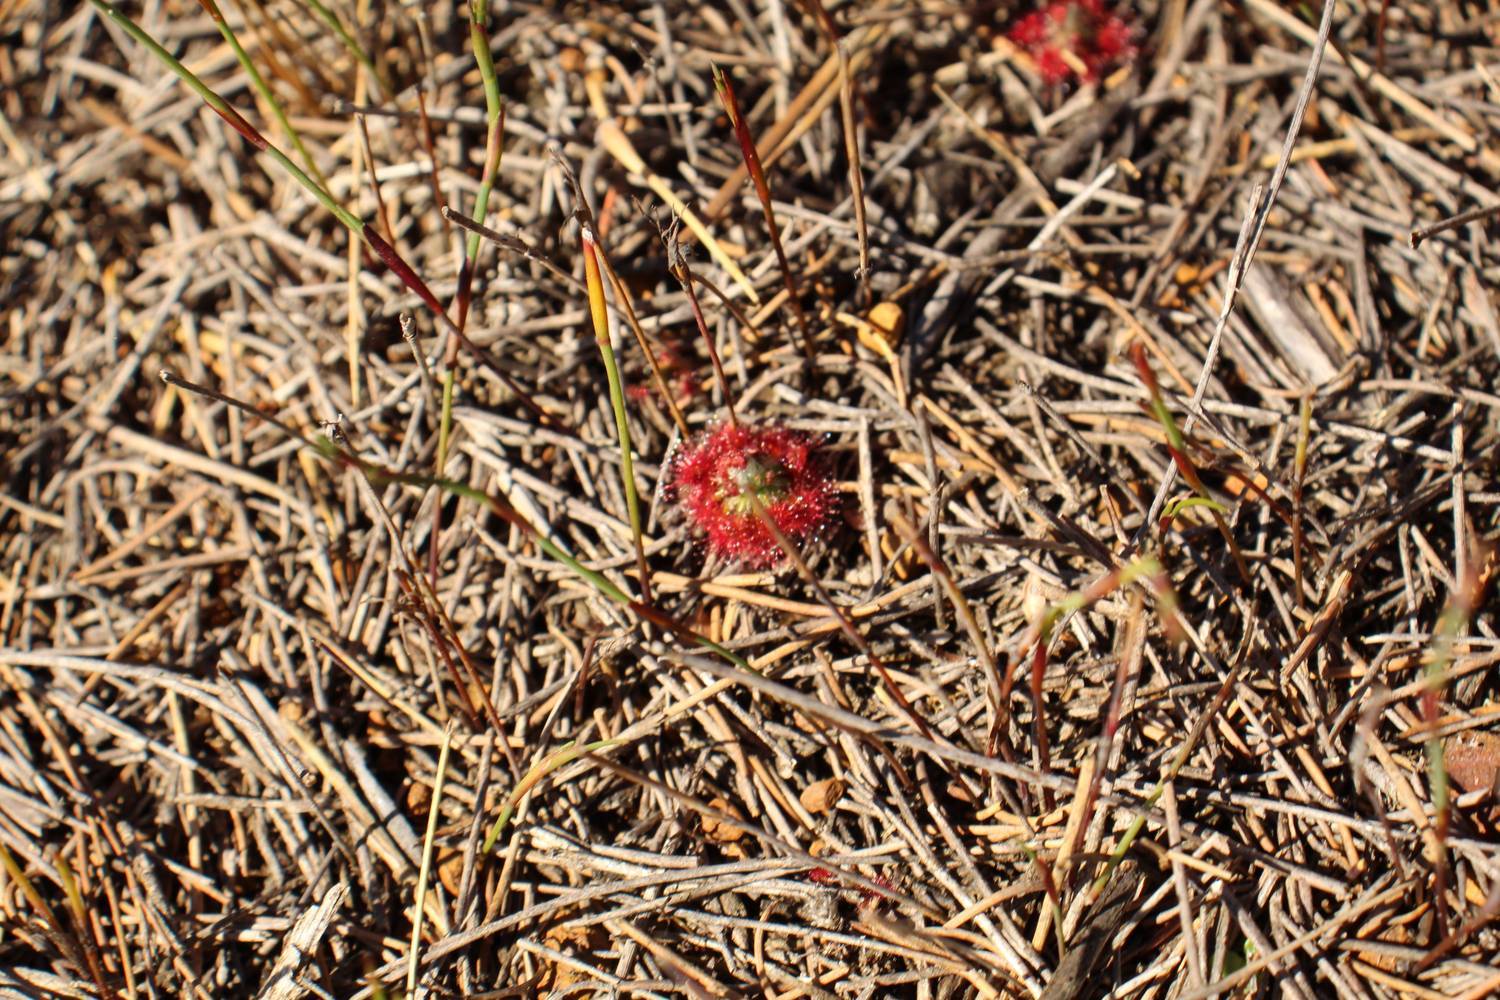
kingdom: Plantae
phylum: Tracheophyta
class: Magnoliopsida
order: Caryophyllales
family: Droseraceae
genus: Drosera
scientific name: Drosera paleacea
